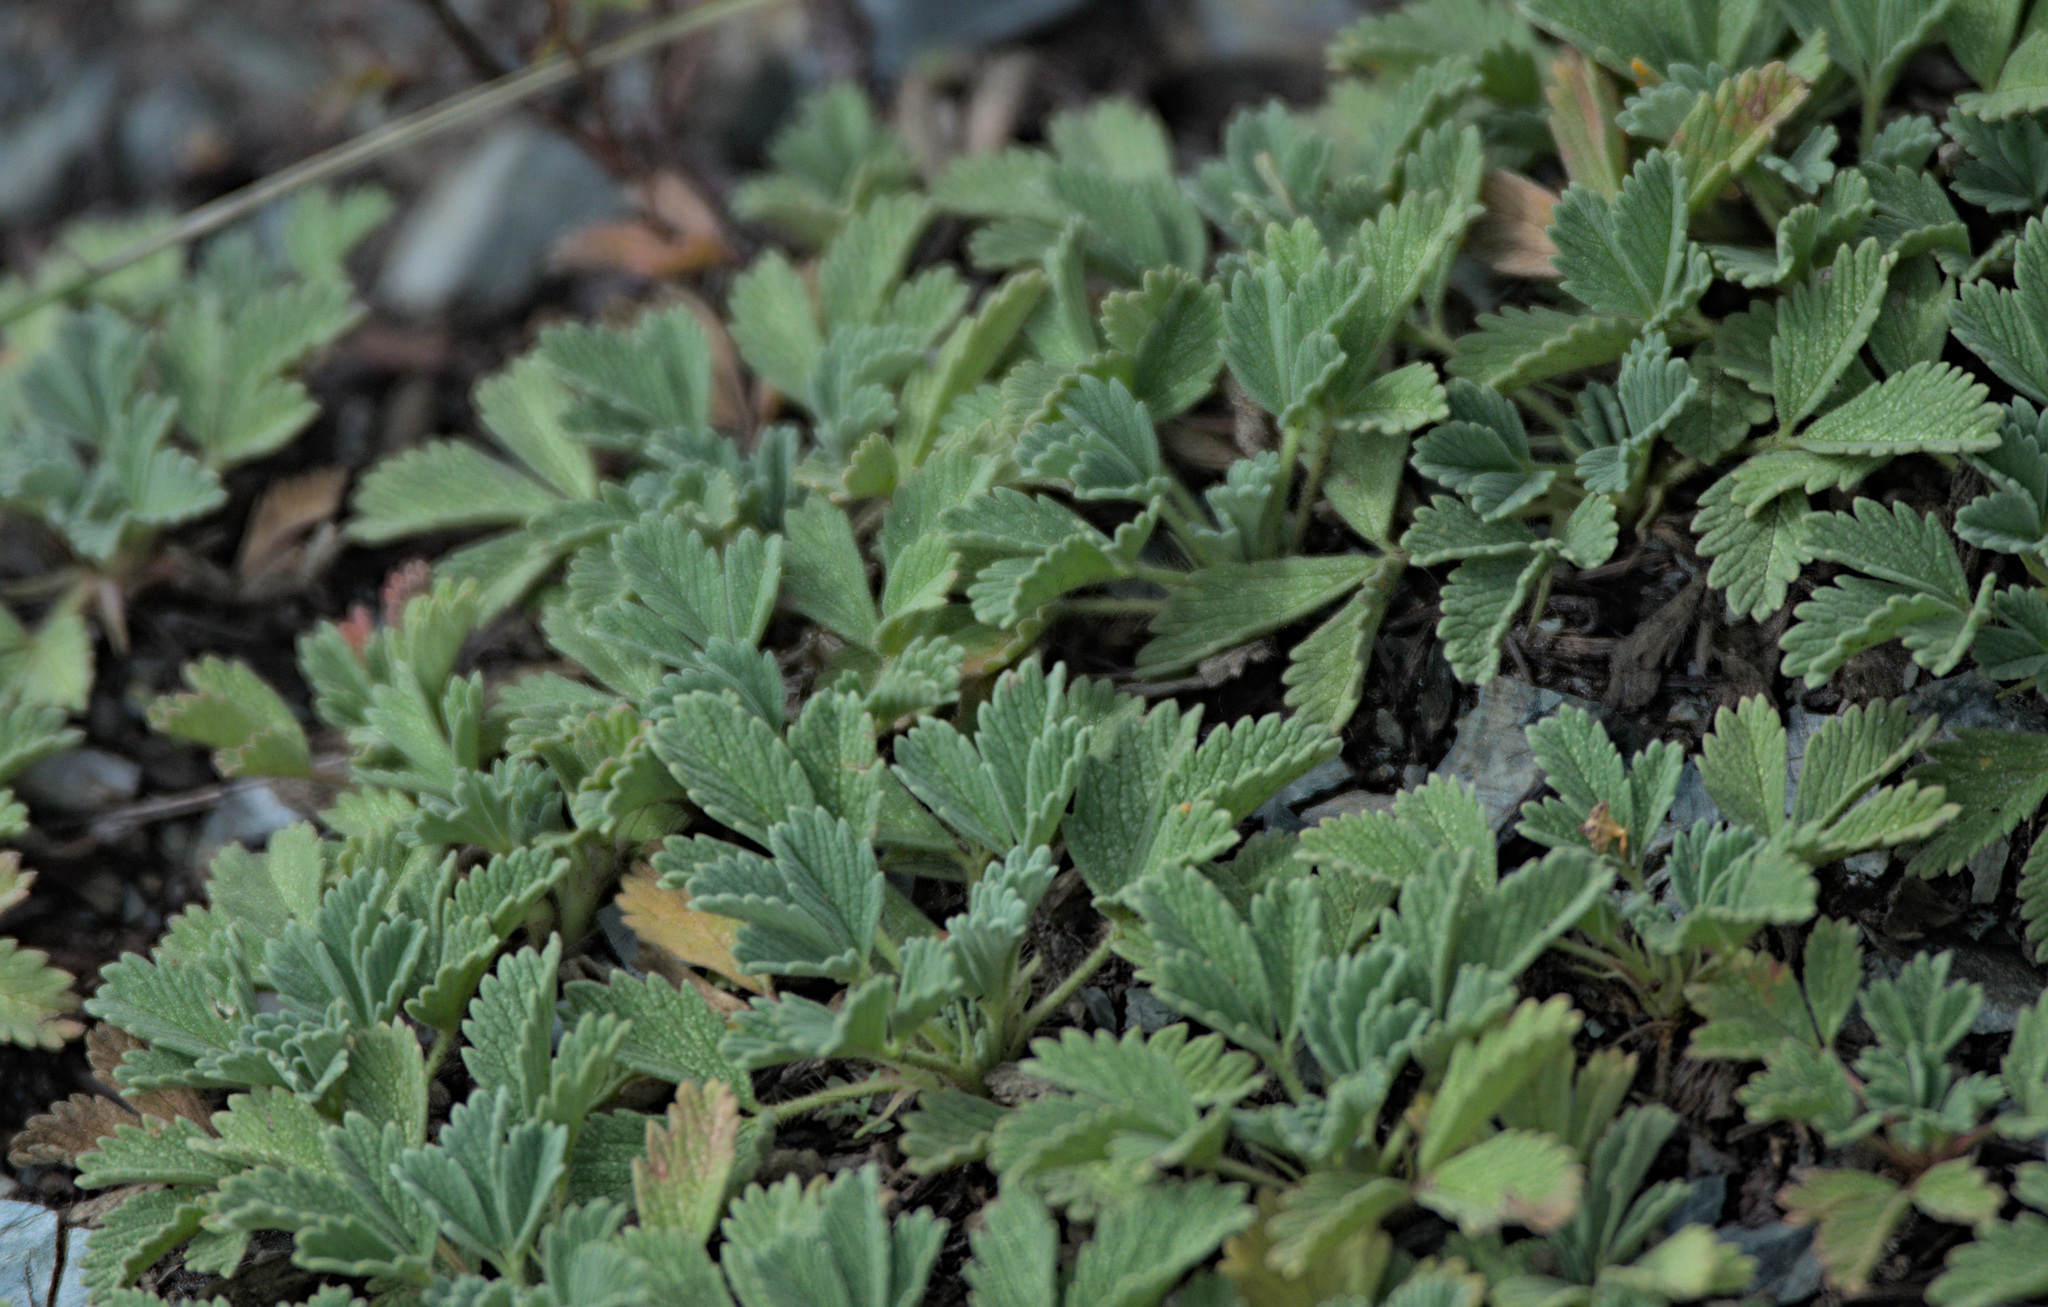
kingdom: Plantae
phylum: Tracheophyta
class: Magnoliopsida
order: Rosales
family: Rosaceae
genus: Potentilla
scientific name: Potentilla acaulis
